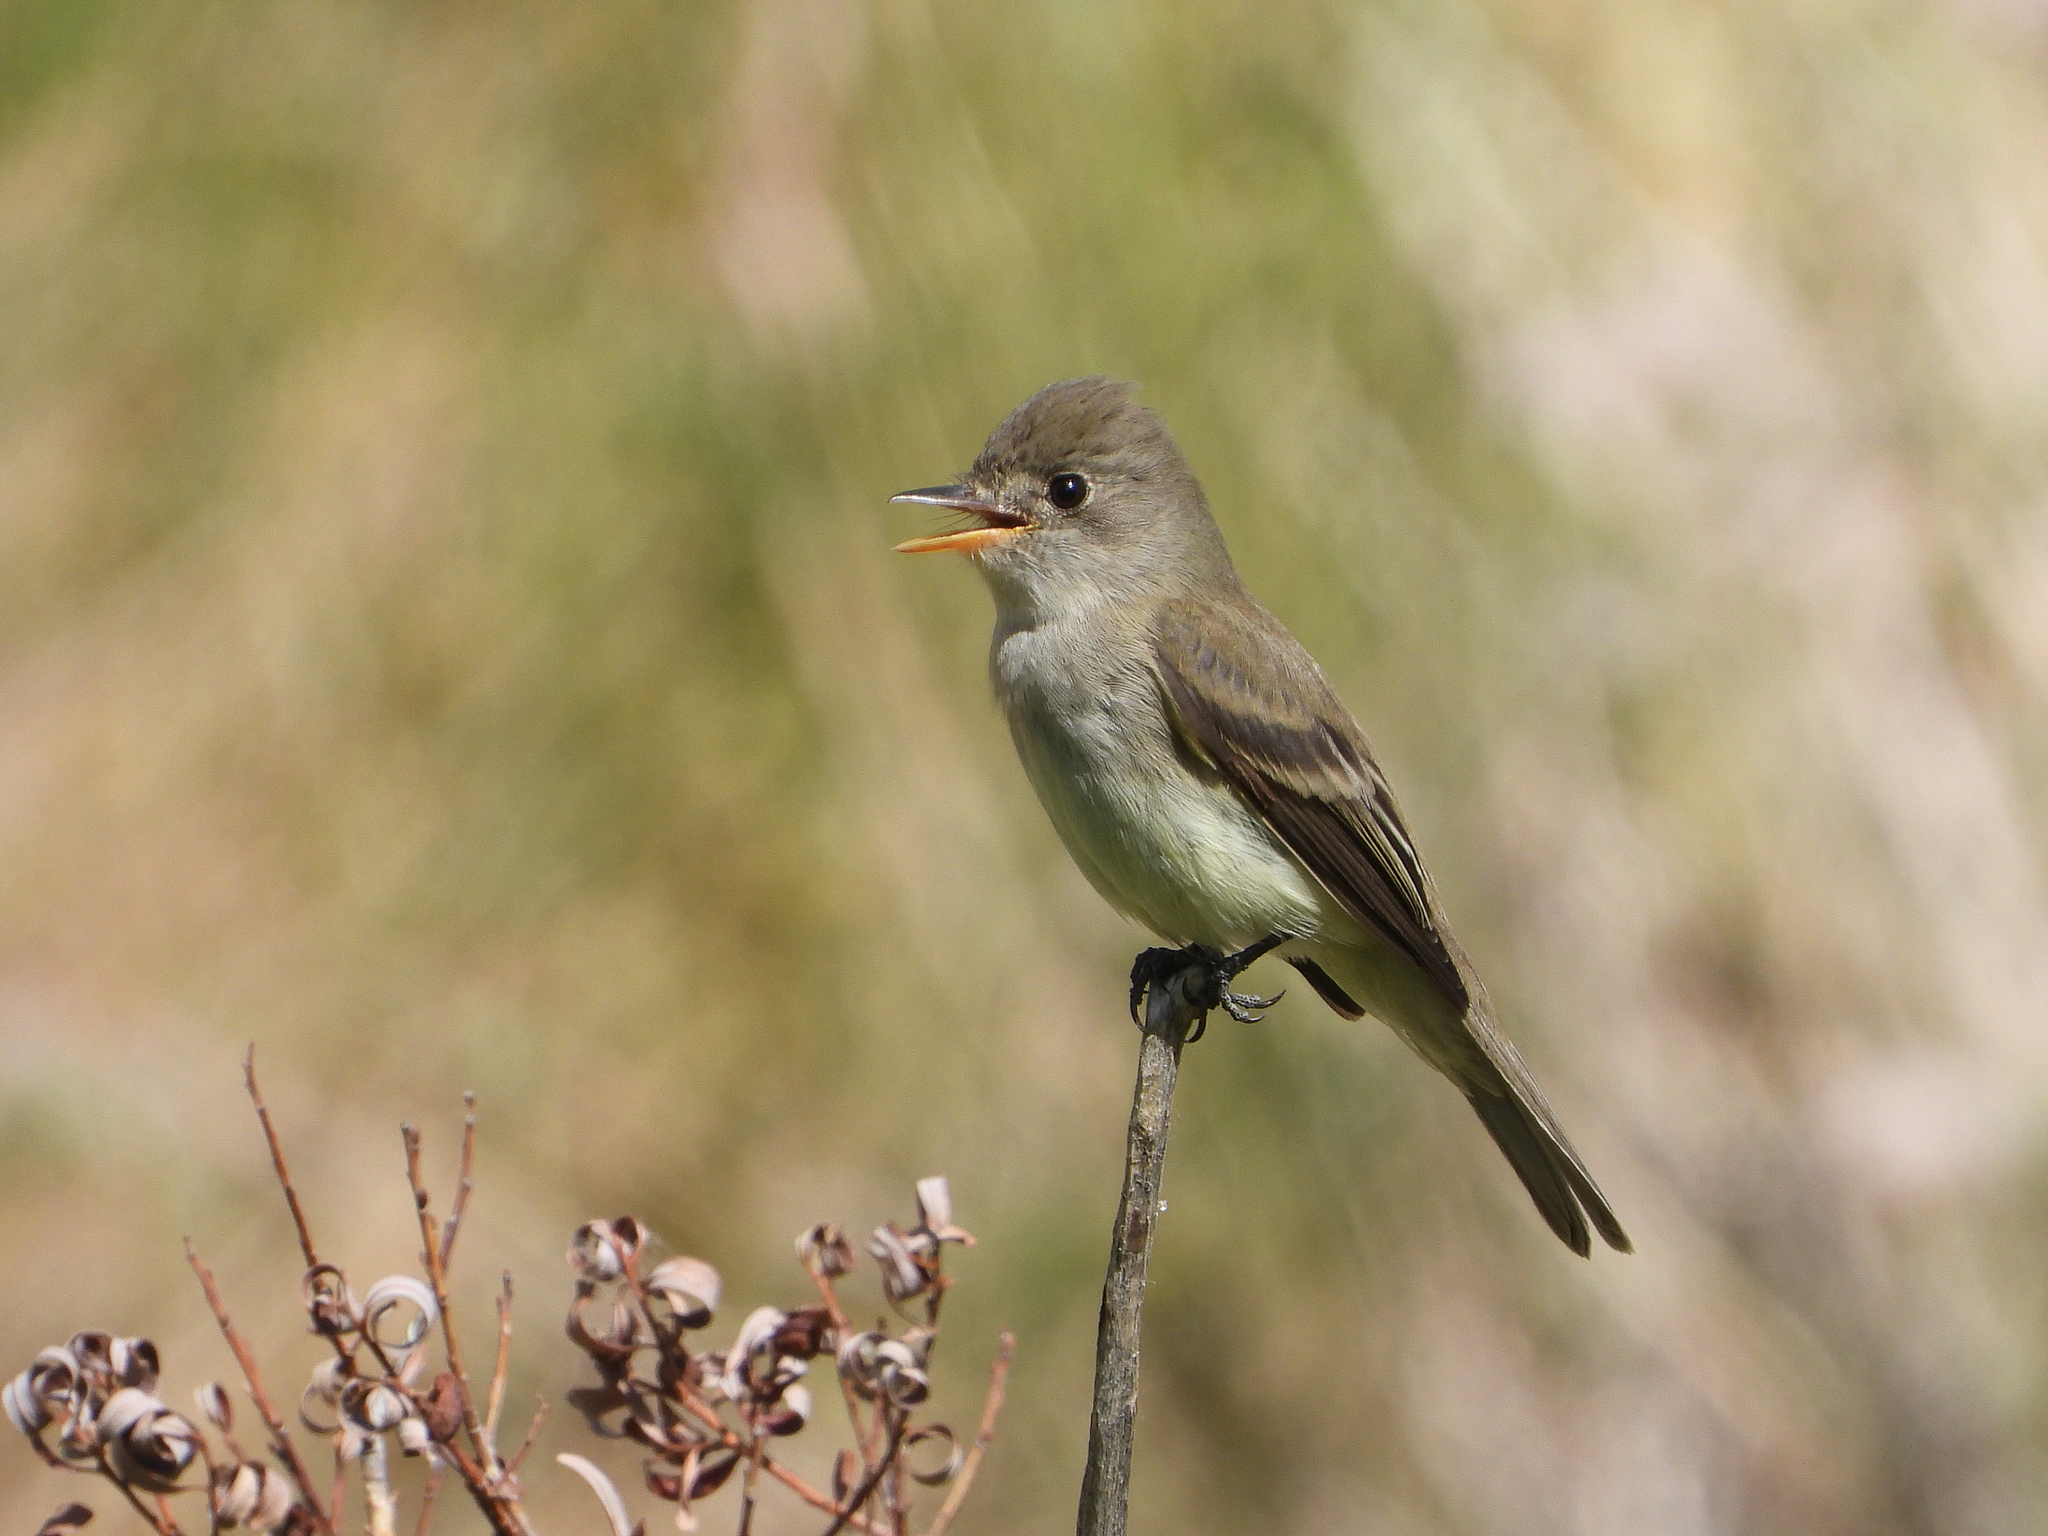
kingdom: Animalia
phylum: Chordata
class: Aves
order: Passeriformes
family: Tyrannidae
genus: Empidonax
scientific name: Empidonax traillii
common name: Willow flycatcher
